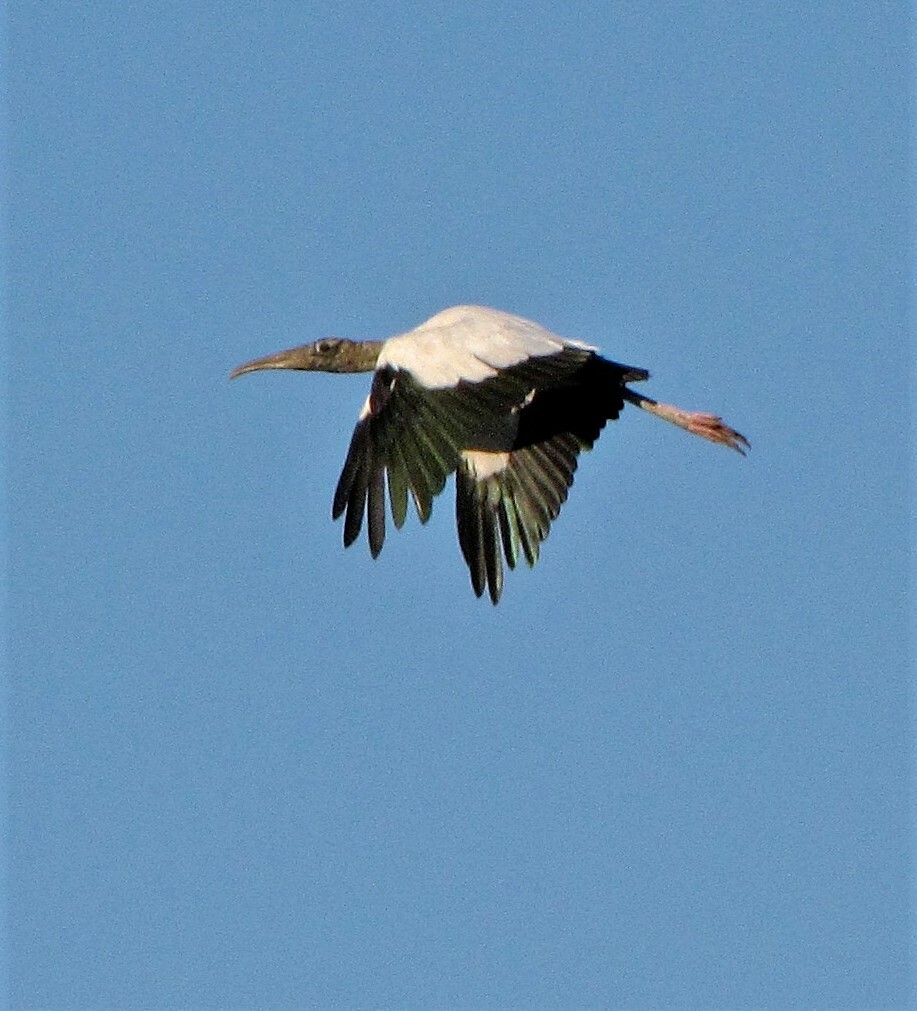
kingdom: Animalia
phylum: Chordata
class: Aves
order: Ciconiiformes
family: Ciconiidae
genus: Mycteria
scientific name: Mycteria americana
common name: Wood stork
